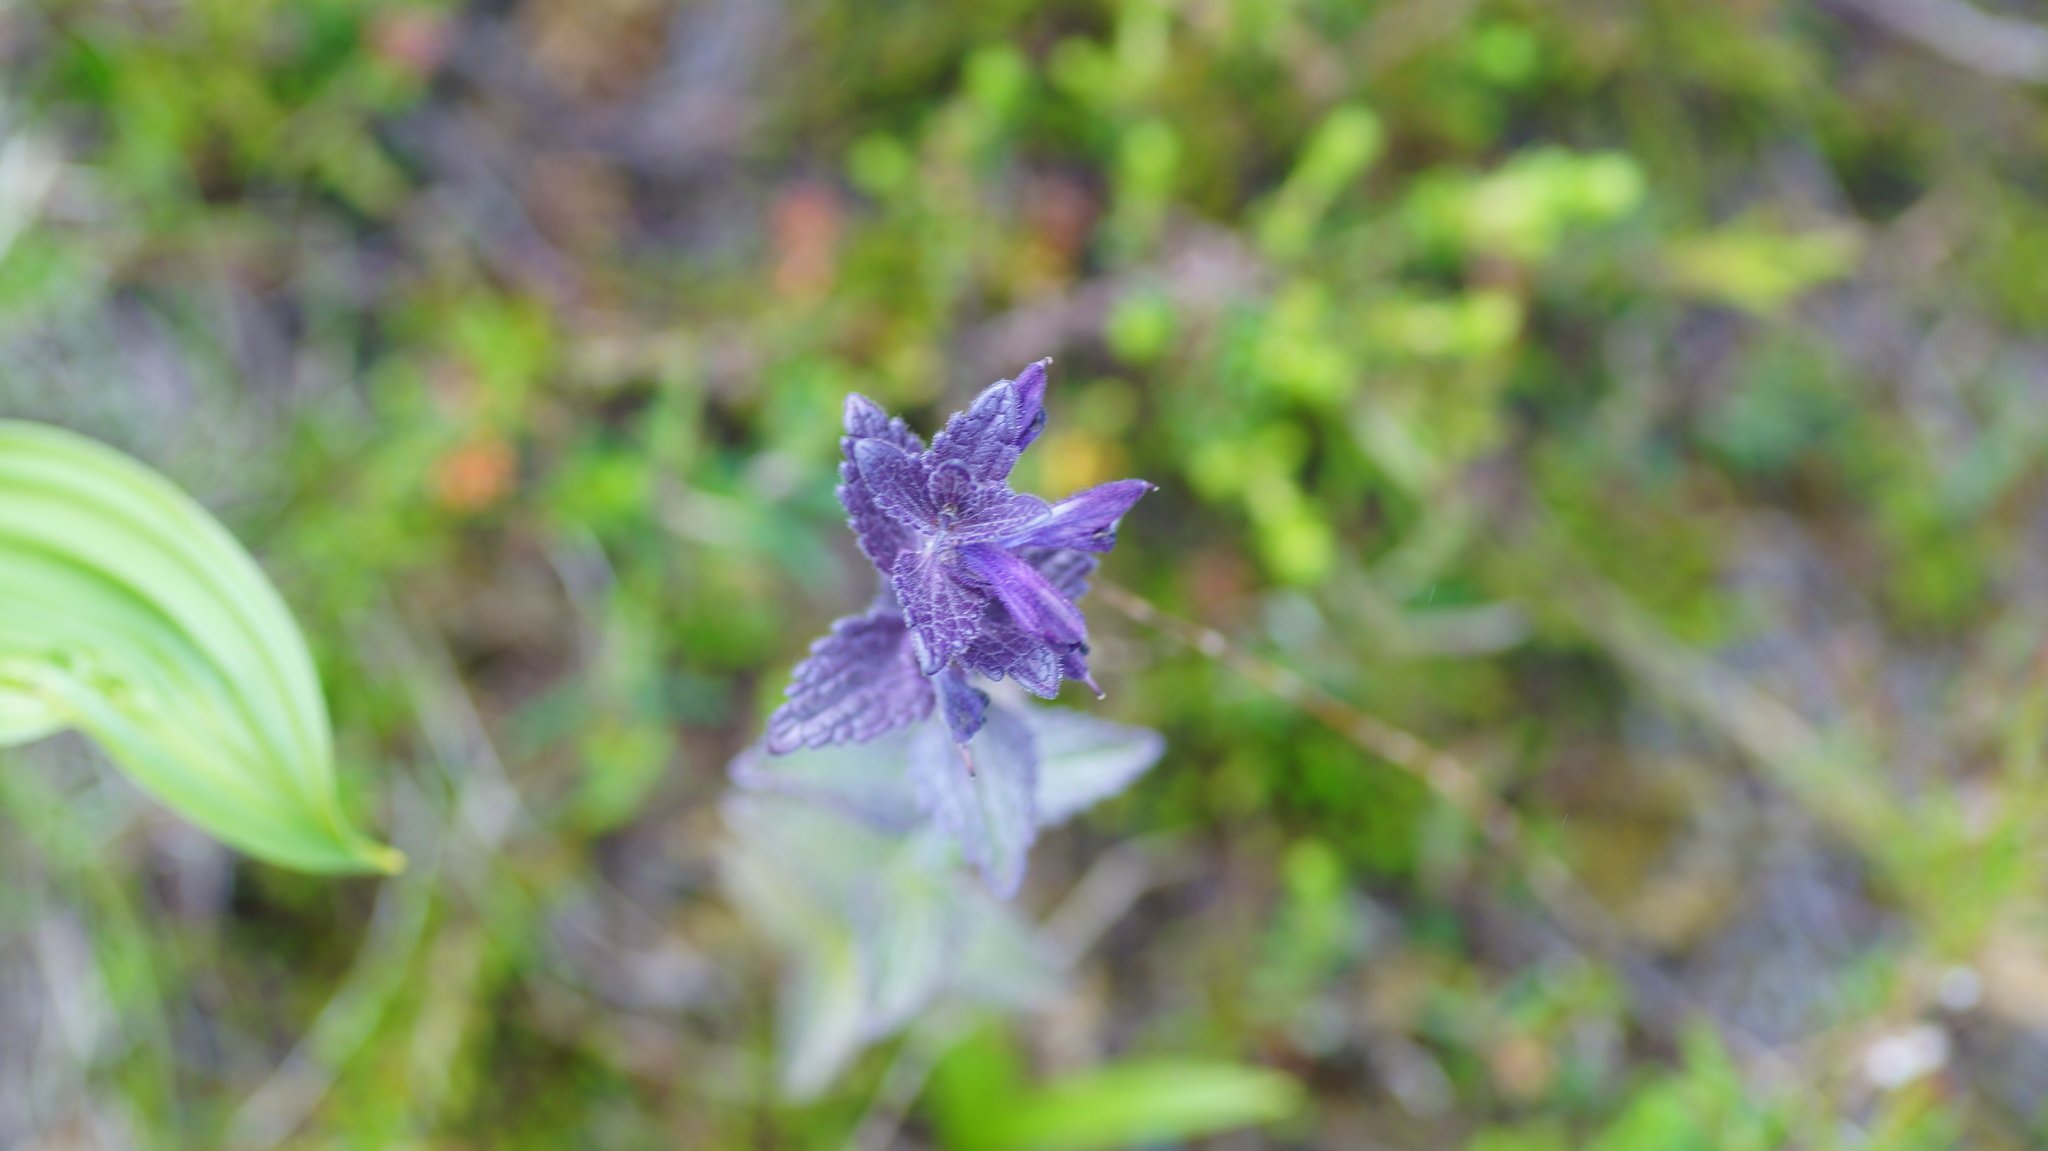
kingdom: Plantae
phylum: Tracheophyta
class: Magnoliopsida
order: Lamiales
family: Orobanchaceae
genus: Bartsia
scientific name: Bartsia alpina
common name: Alpine bartsia
